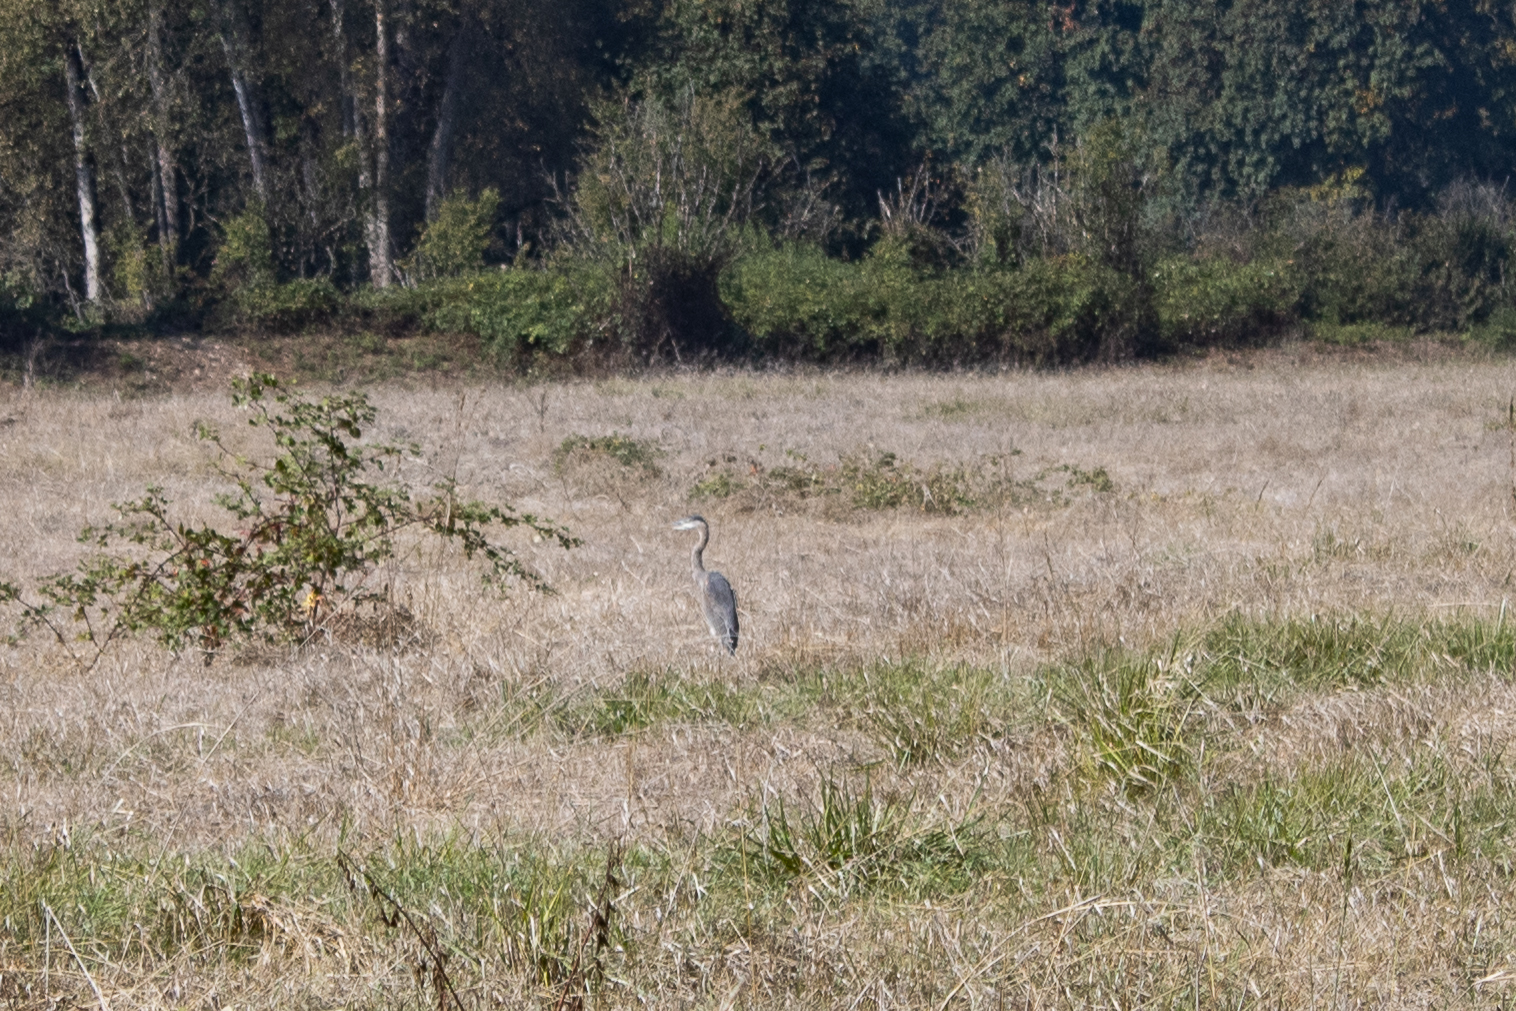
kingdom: Animalia
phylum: Chordata
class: Aves
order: Pelecaniformes
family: Ardeidae
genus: Ardea
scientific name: Ardea herodias
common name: Great blue heron
